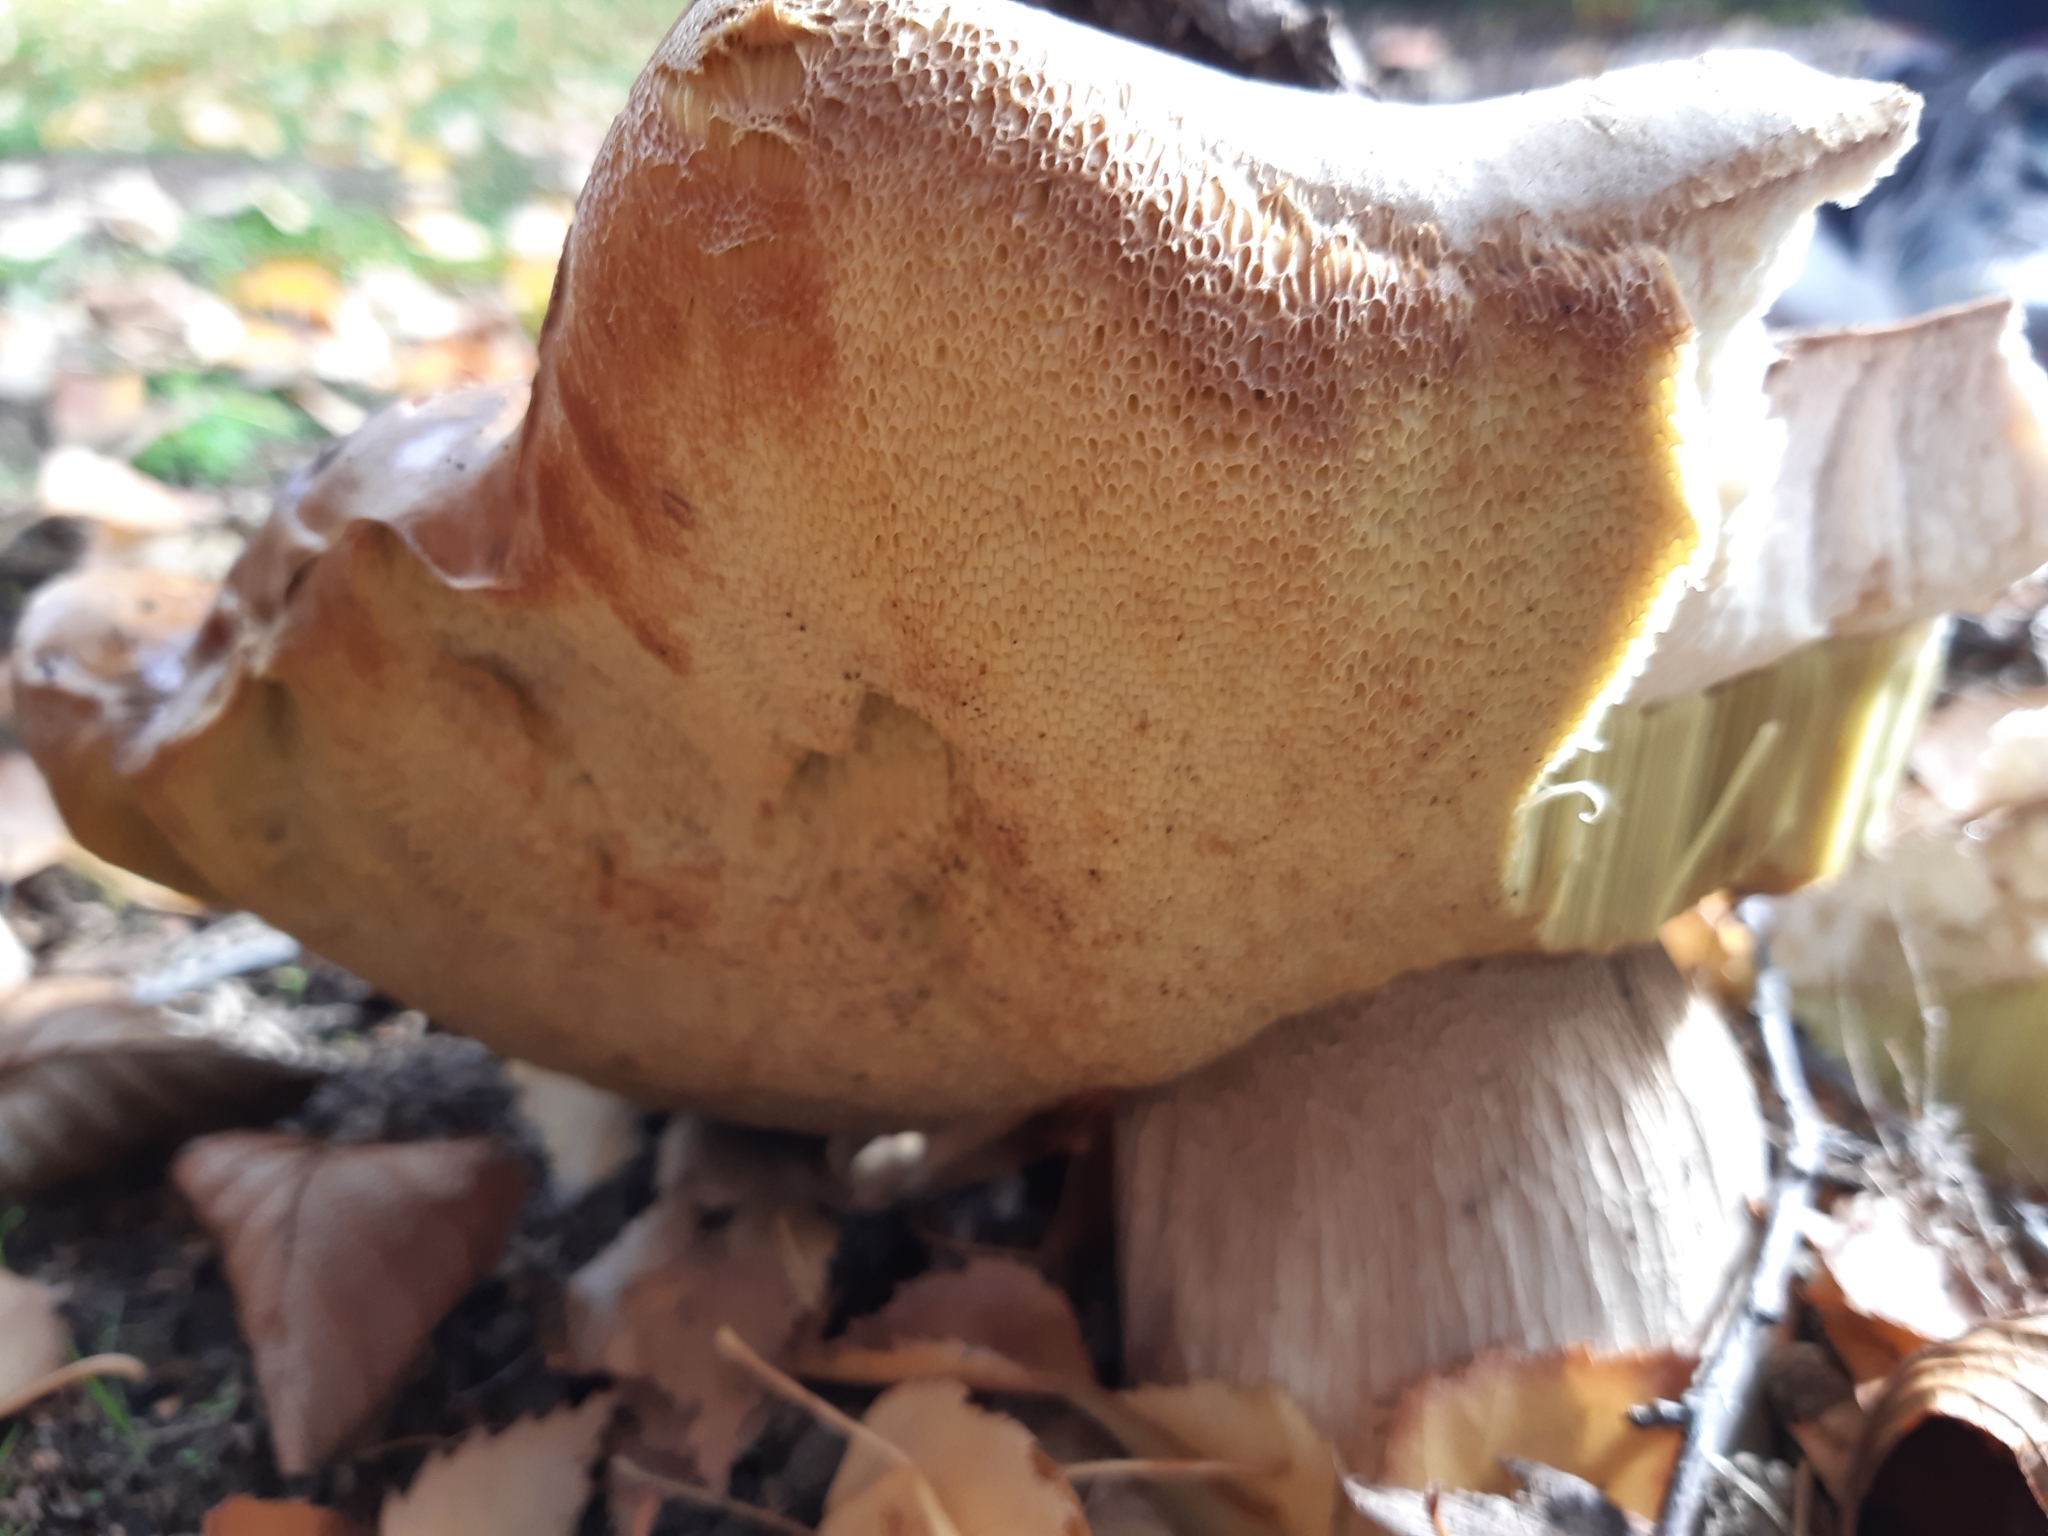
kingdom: Fungi
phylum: Basidiomycota
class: Agaricomycetes
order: Boletales
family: Boletaceae
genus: Boletus
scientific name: Boletus edulis
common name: Cep
